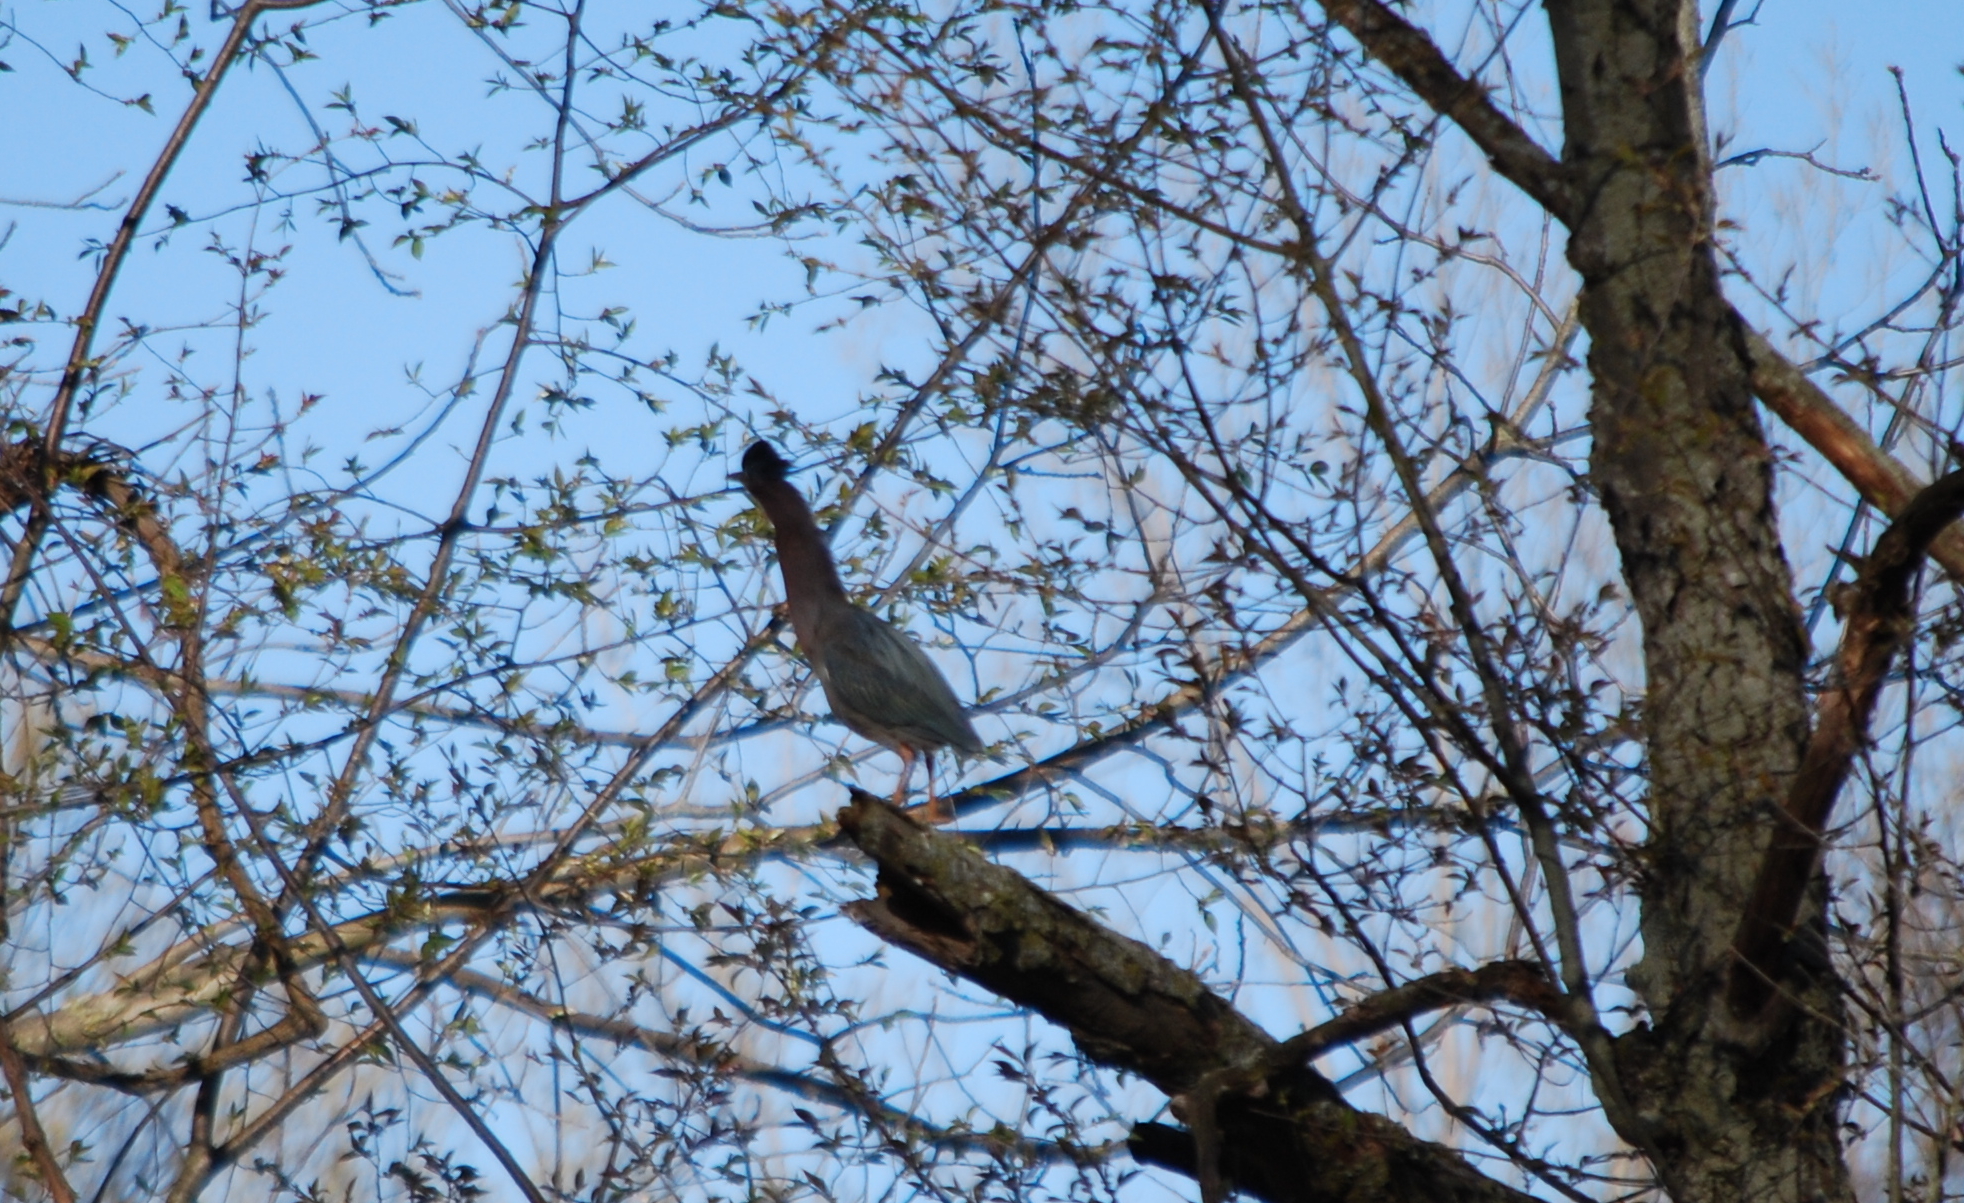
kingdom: Animalia
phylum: Chordata
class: Aves
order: Pelecaniformes
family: Ardeidae
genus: Butorides
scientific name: Butorides virescens
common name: Green heron
